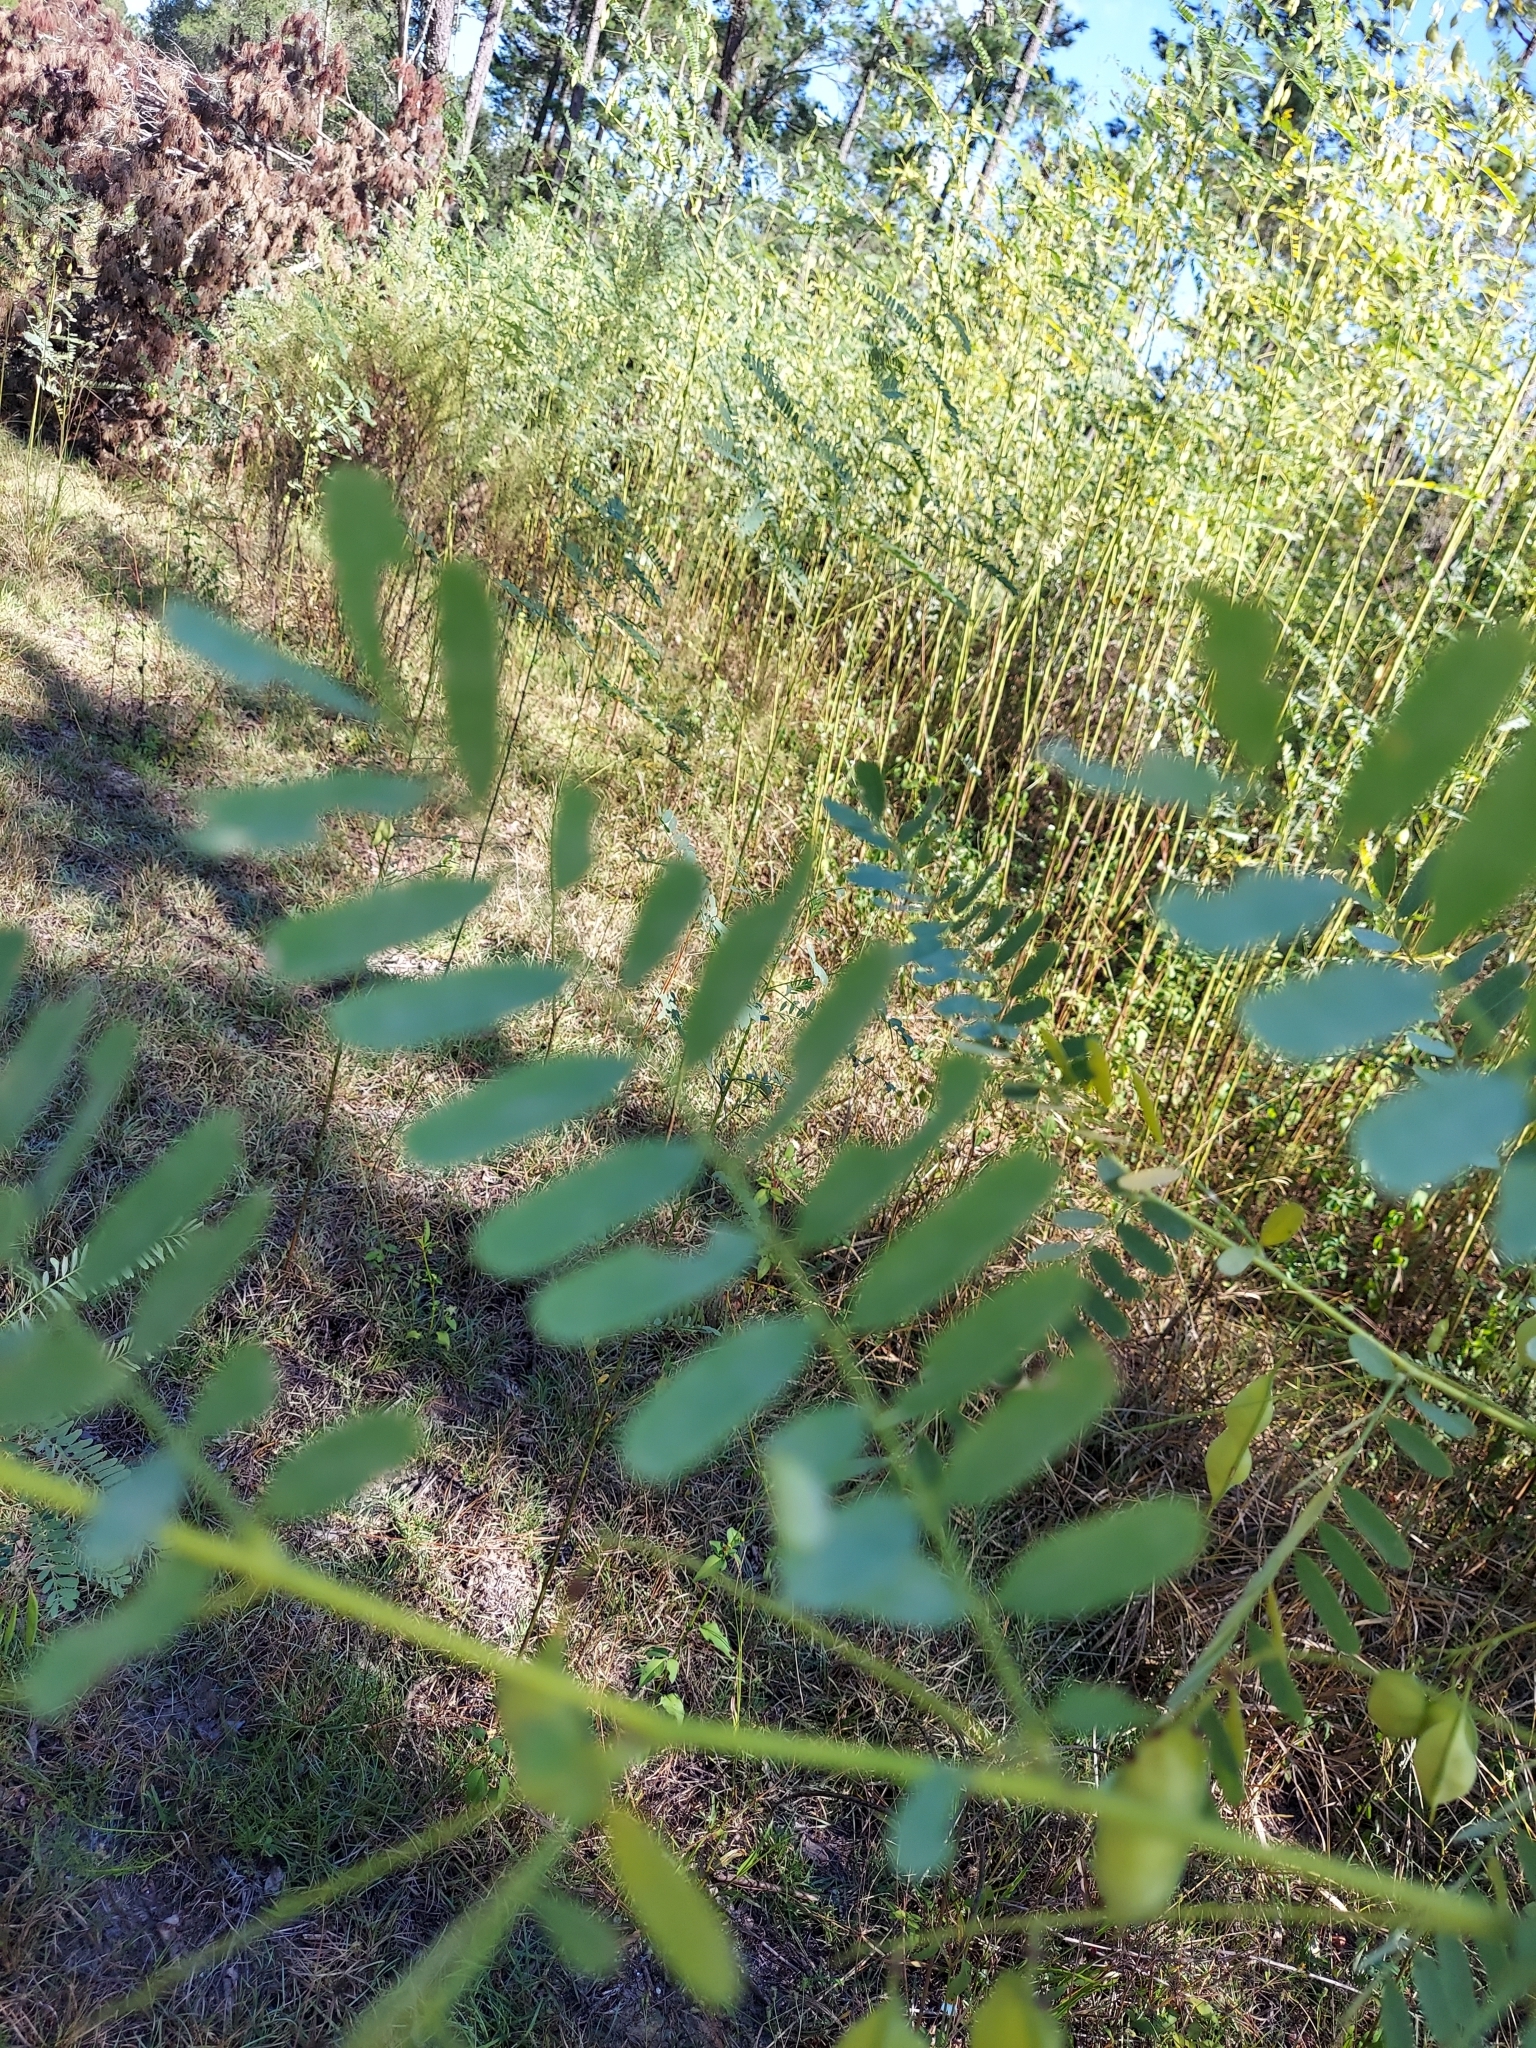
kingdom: Plantae
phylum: Tracheophyta
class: Magnoliopsida
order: Fabales
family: Fabaceae
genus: Sesbania
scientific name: Sesbania vesicaria
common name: Bagpod
